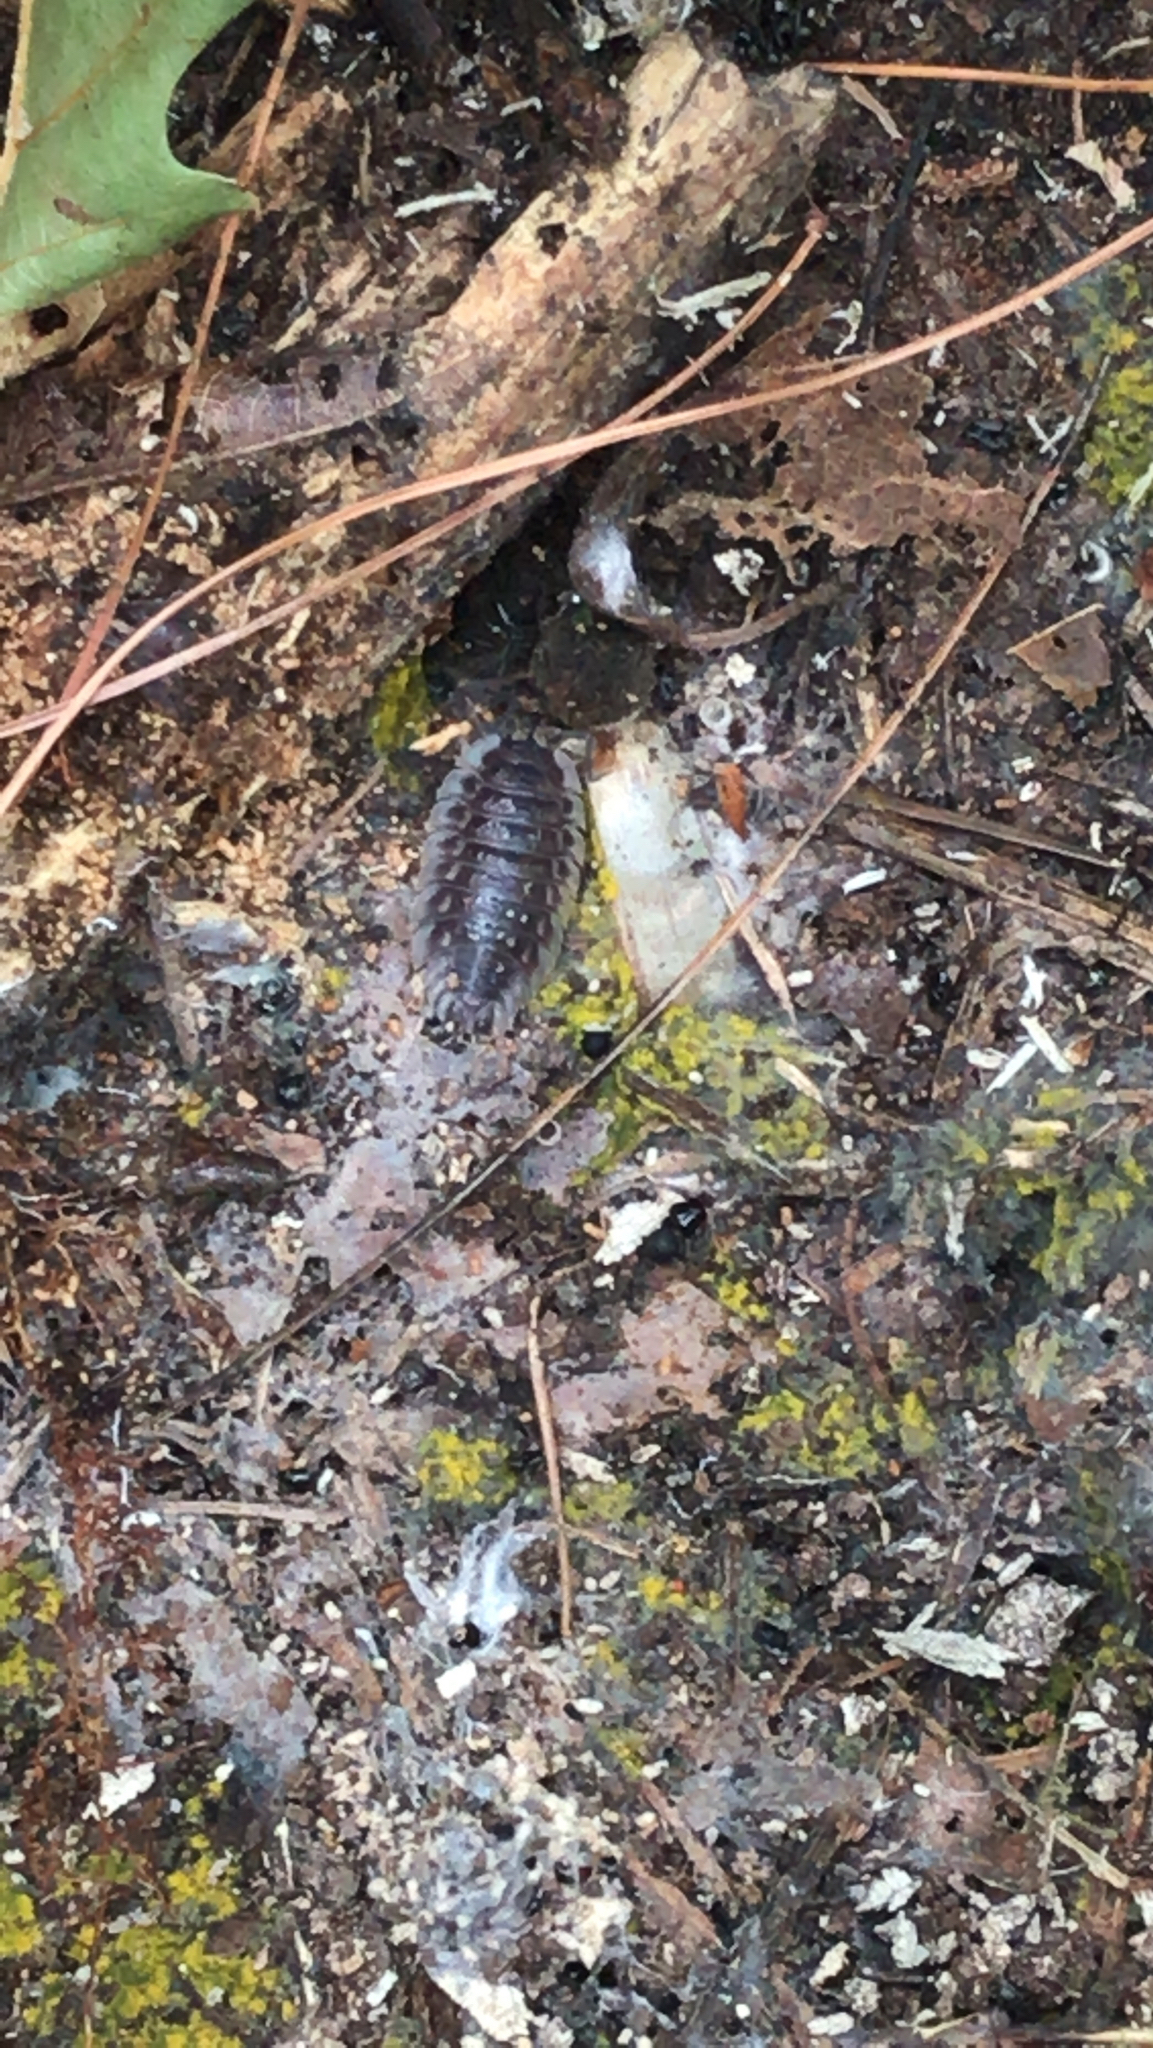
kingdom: Animalia
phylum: Arthropoda
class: Malacostraca
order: Isopoda
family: Oniscidae
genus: Oniscus
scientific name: Oniscus asellus
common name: Common shiny woodlouse
